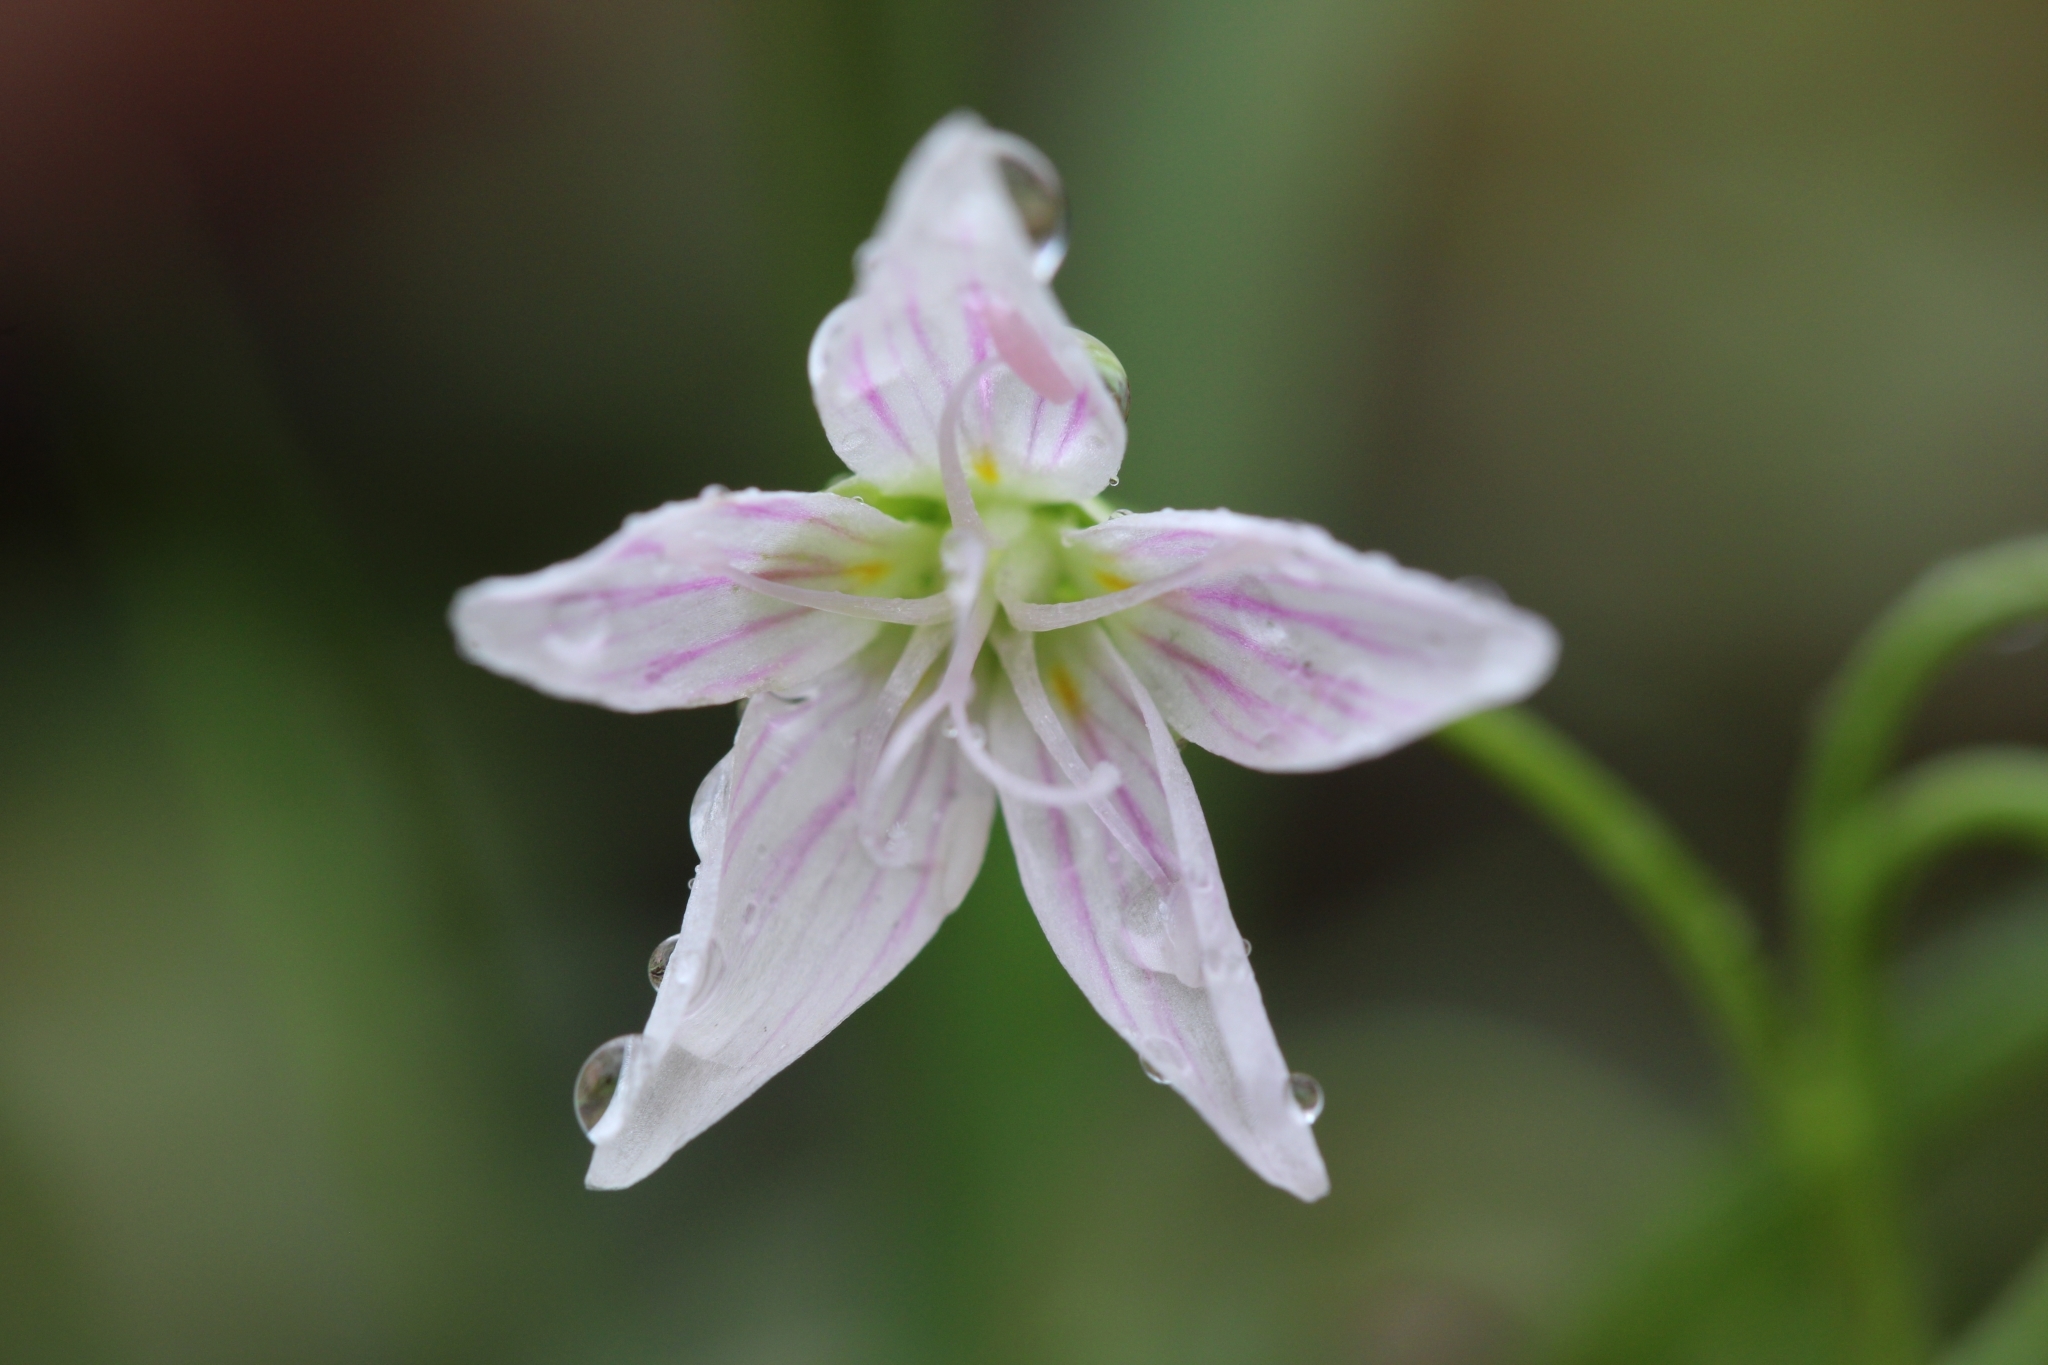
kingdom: Plantae
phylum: Tracheophyta
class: Magnoliopsida
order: Caryophyllales
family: Montiaceae
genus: Claytonia
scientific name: Claytonia virginica
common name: Virginia springbeauty
